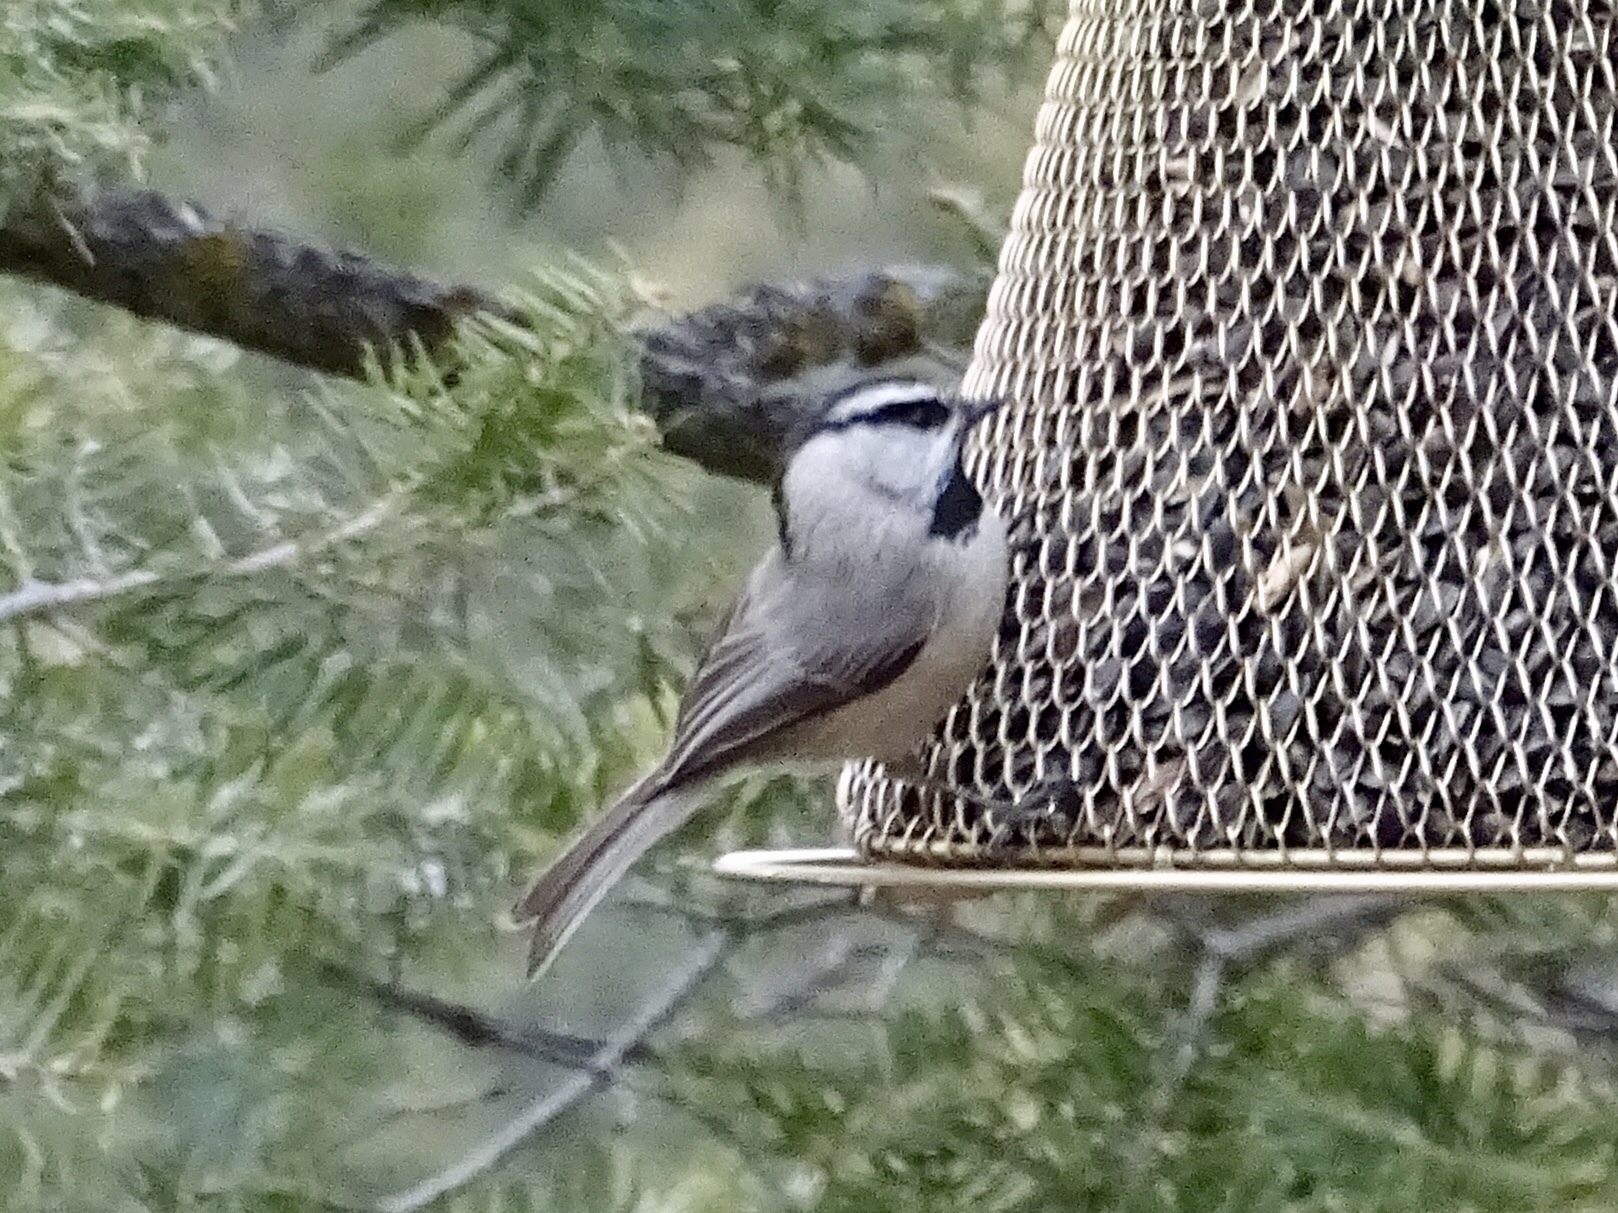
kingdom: Animalia
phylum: Chordata
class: Aves
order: Passeriformes
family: Paridae
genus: Poecile
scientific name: Poecile gambeli
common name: Mountain chickadee
